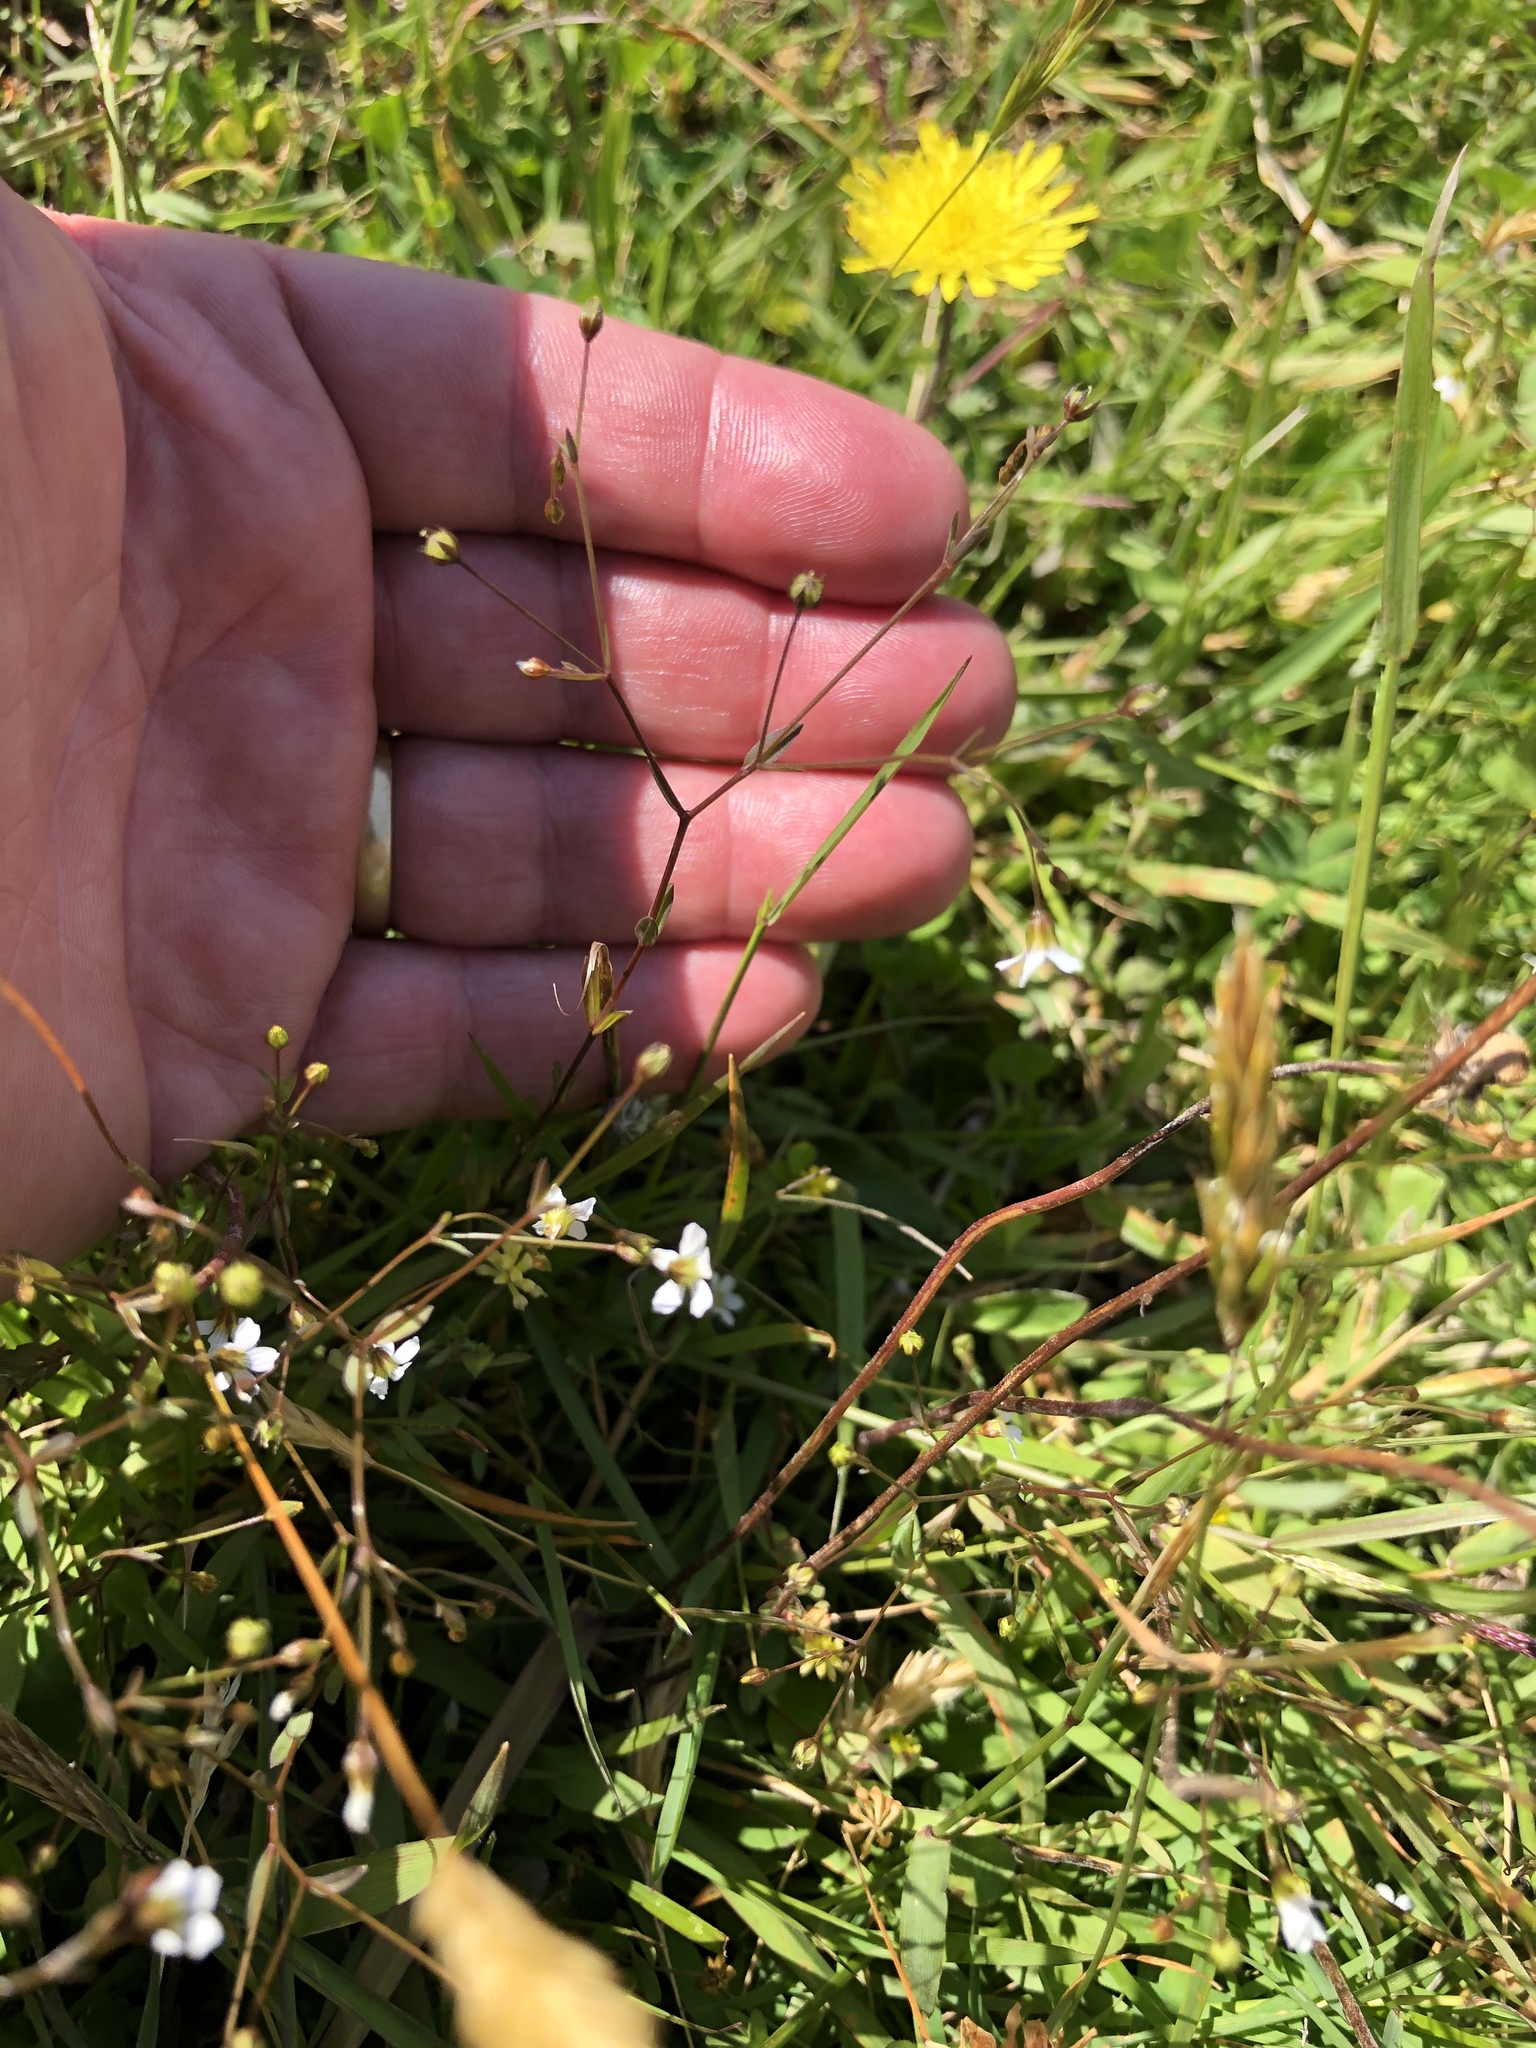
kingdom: Plantae
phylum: Tracheophyta
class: Magnoliopsida
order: Malpighiales
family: Linaceae
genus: Linum
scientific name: Linum catharticum
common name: Fairy flax
